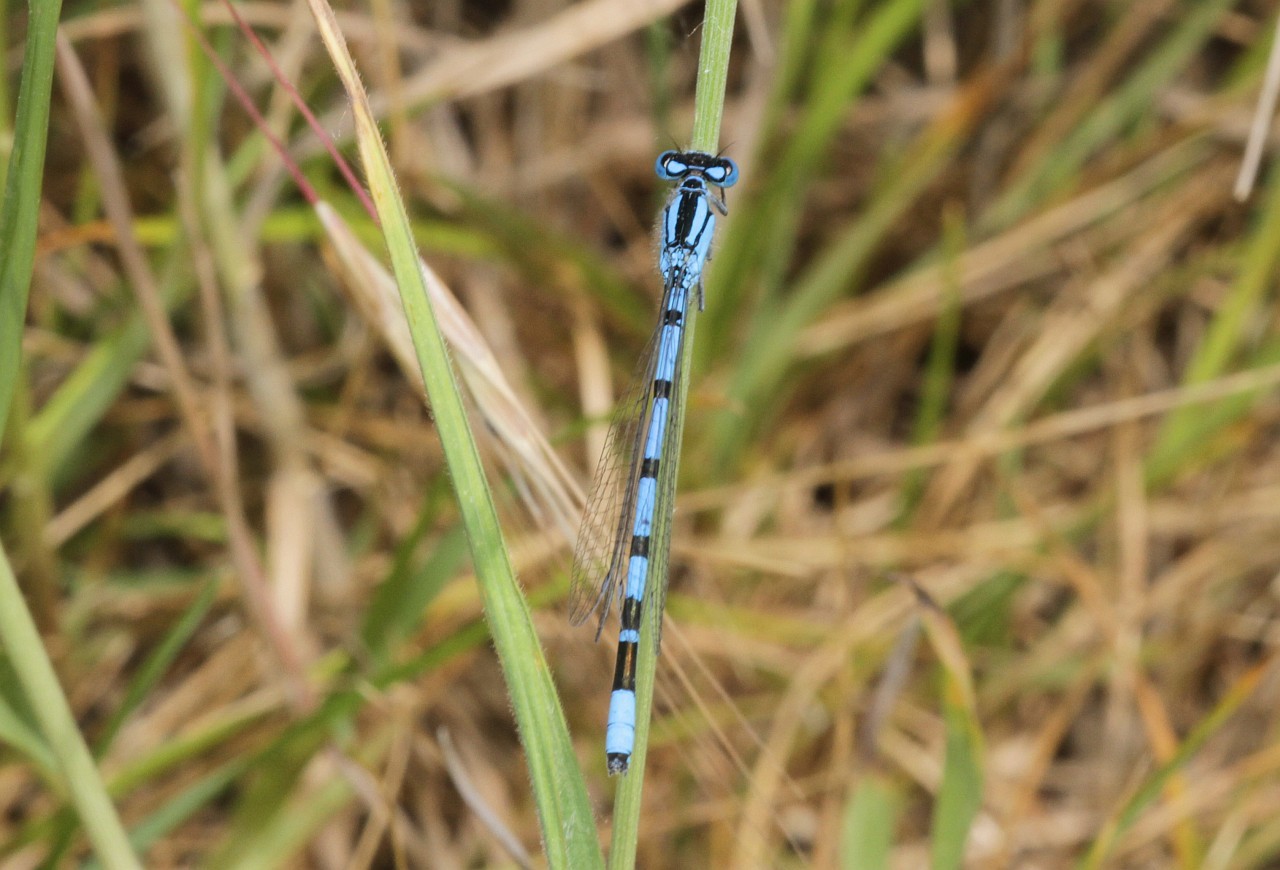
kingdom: Animalia
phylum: Arthropoda
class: Insecta
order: Odonata
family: Coenagrionidae
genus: Enallagma
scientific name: Enallagma cyathigerum
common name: Common blue damselfly
